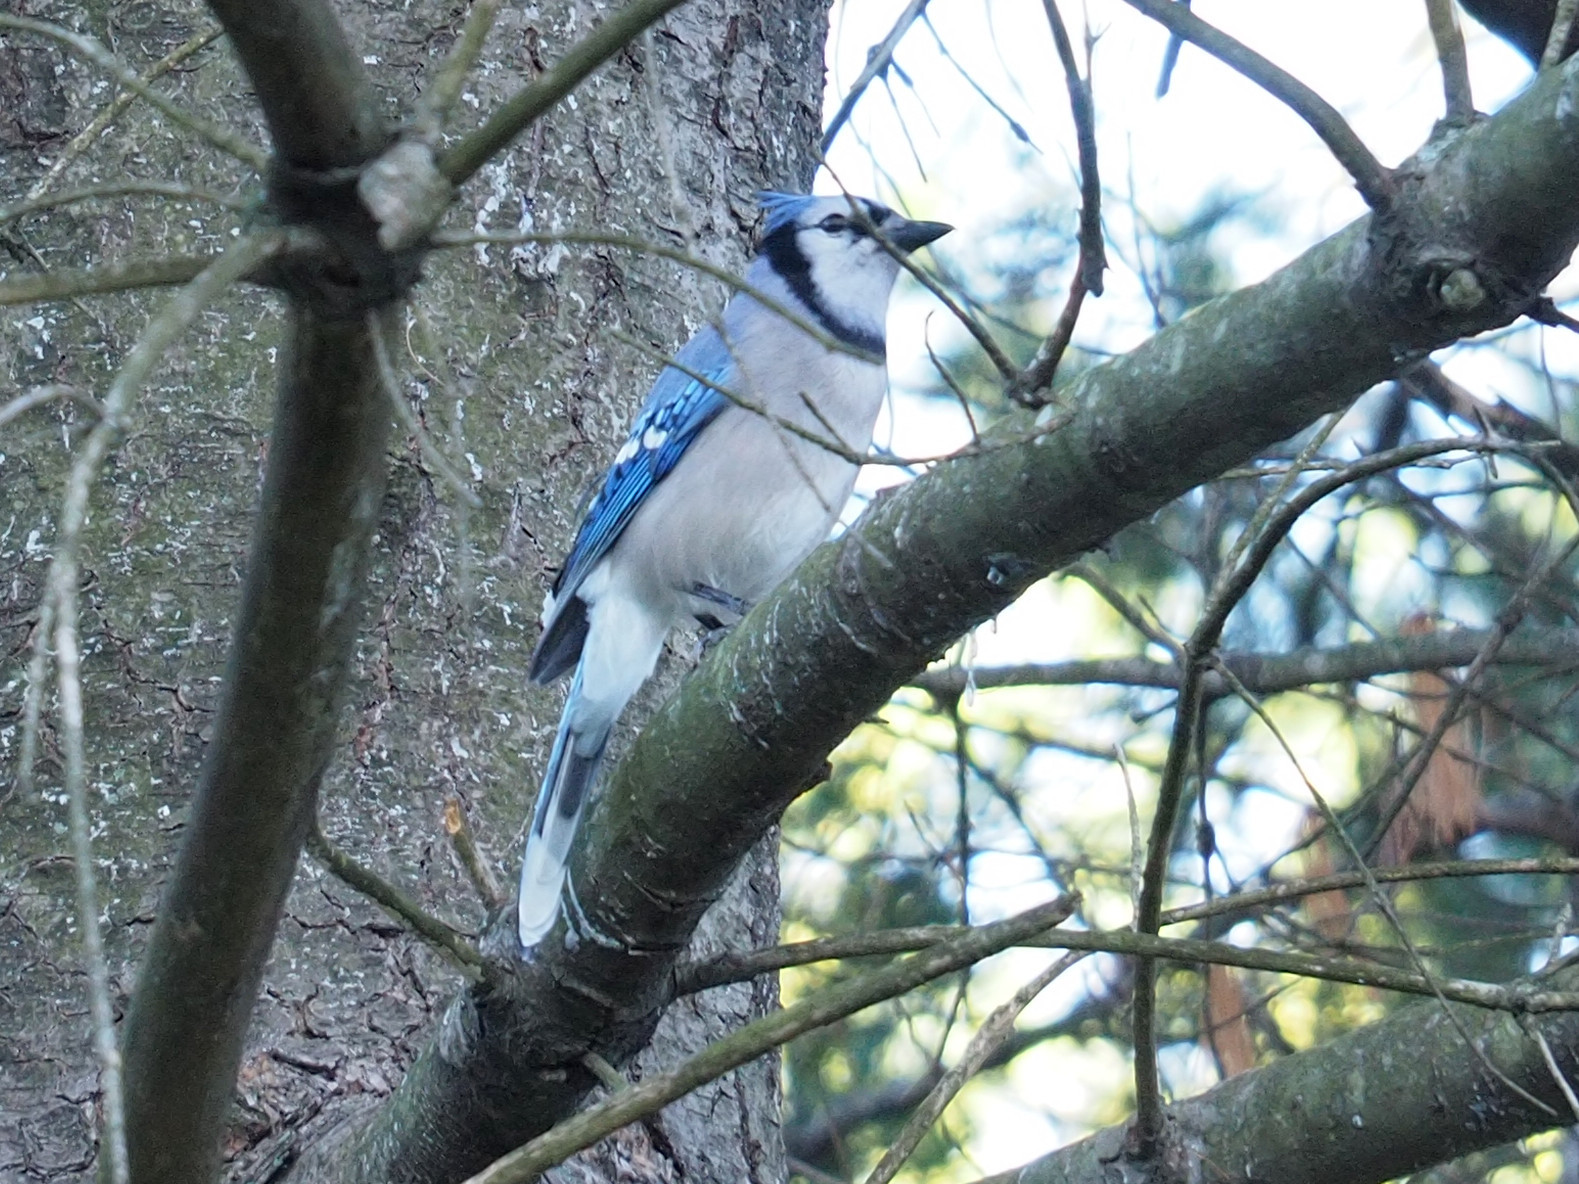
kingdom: Animalia
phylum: Chordata
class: Aves
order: Passeriformes
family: Corvidae
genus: Cyanocitta
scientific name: Cyanocitta cristata
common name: Blue jay
